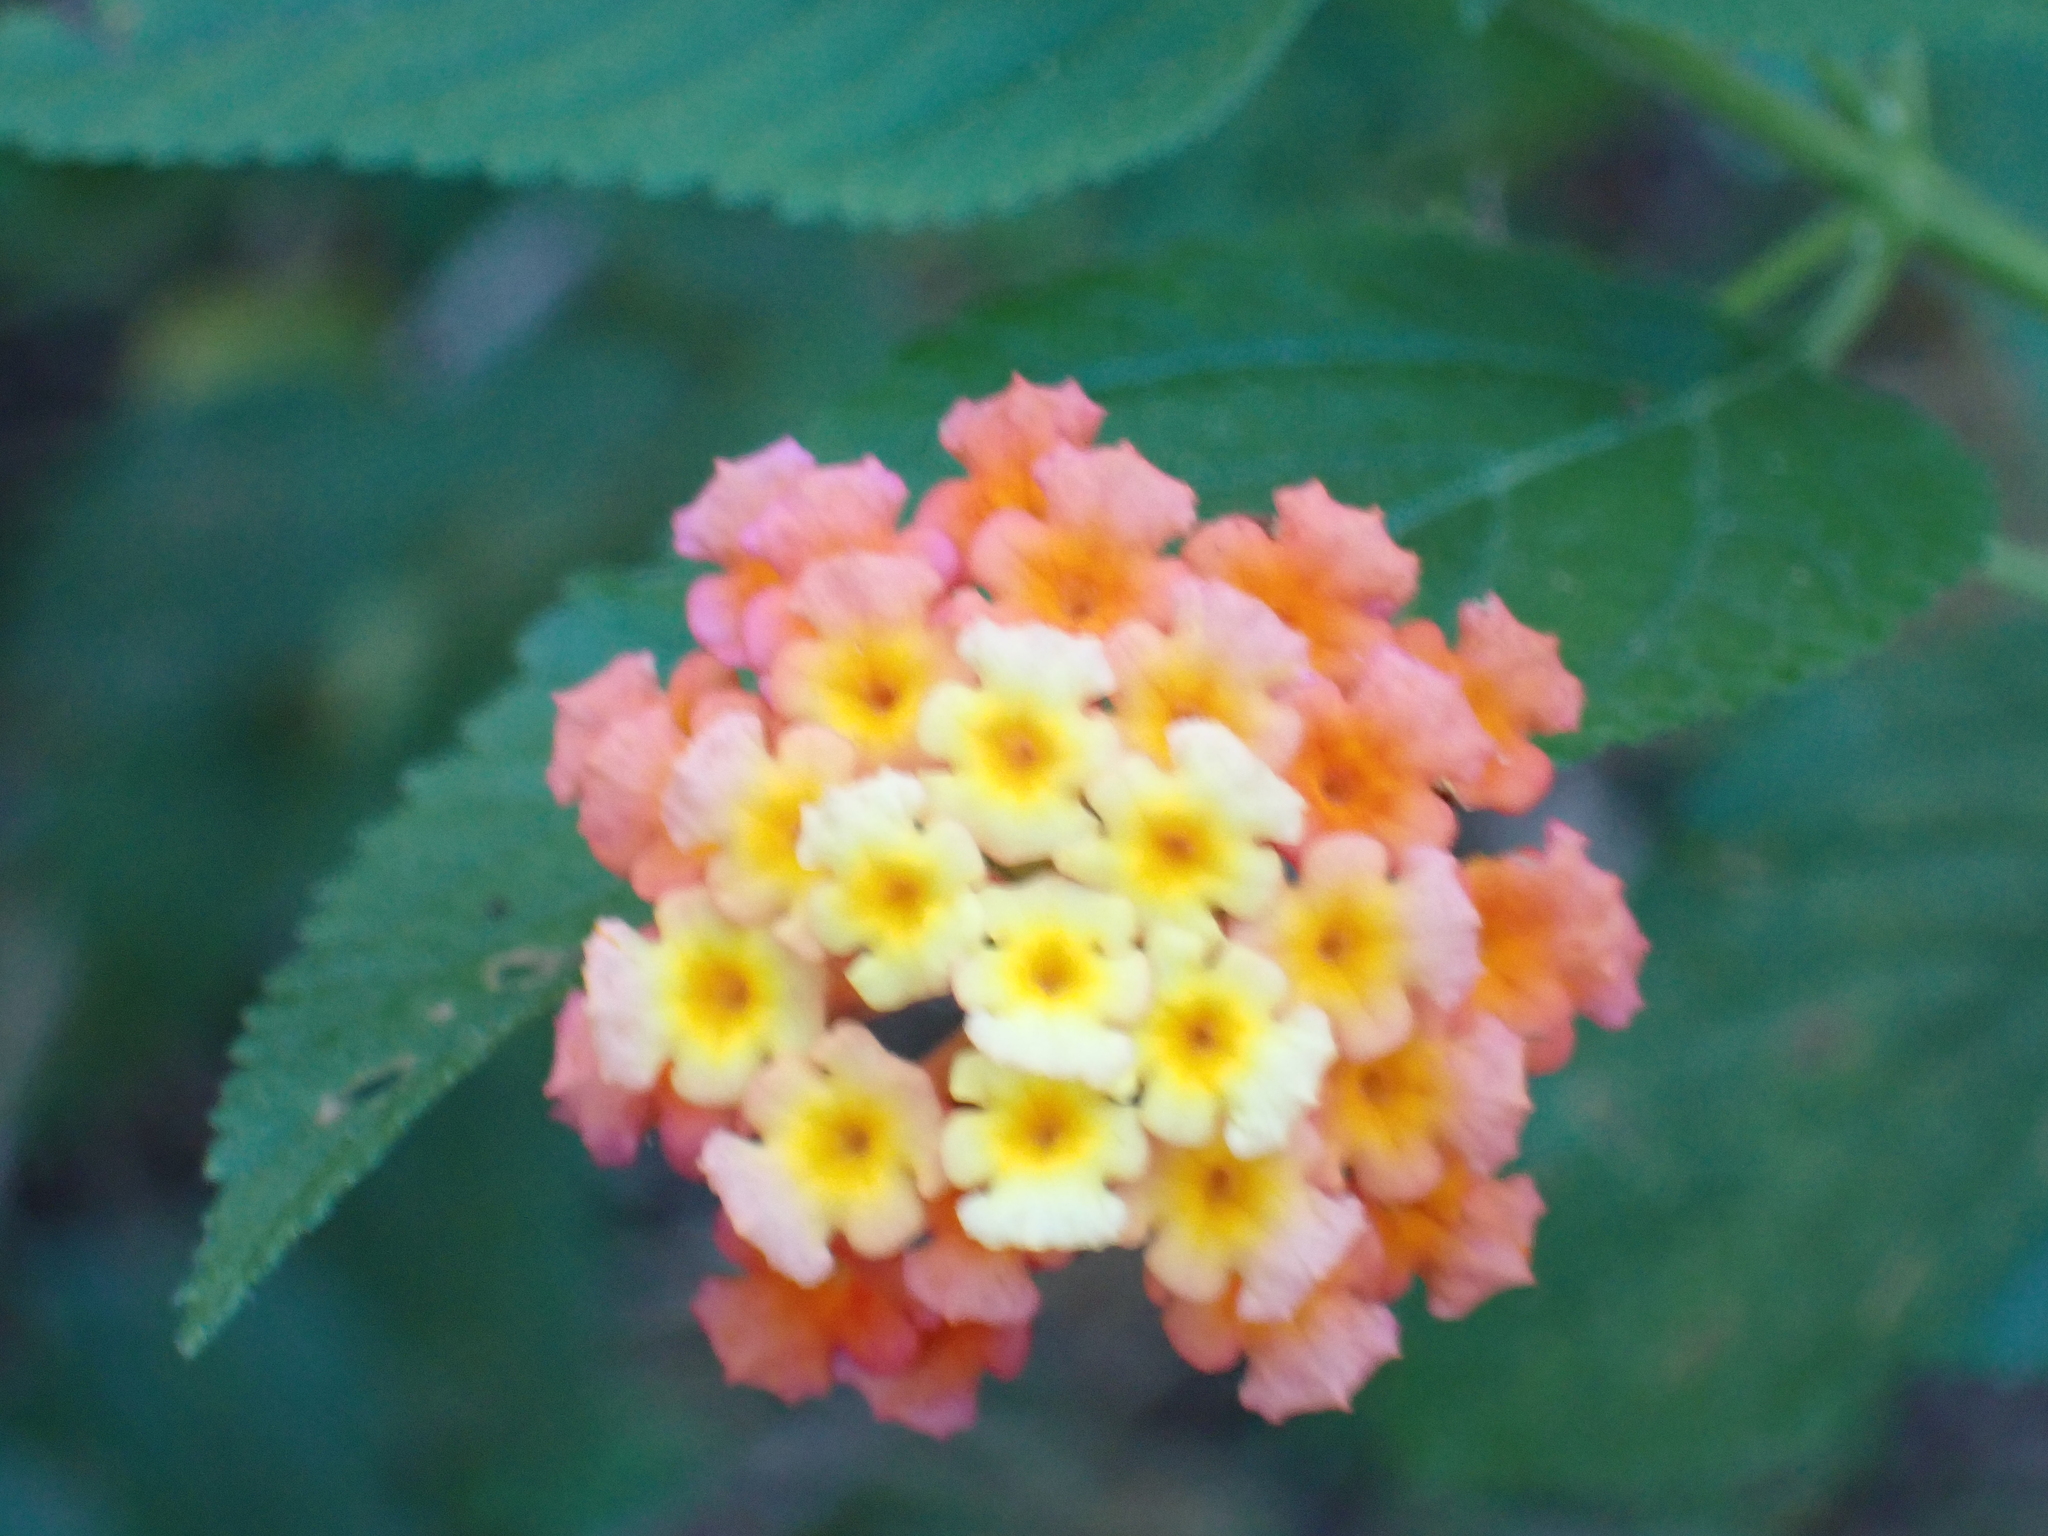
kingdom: Plantae
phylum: Tracheophyta
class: Magnoliopsida
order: Lamiales
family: Verbenaceae
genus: Lantana
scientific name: Lantana camara
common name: Lantana
